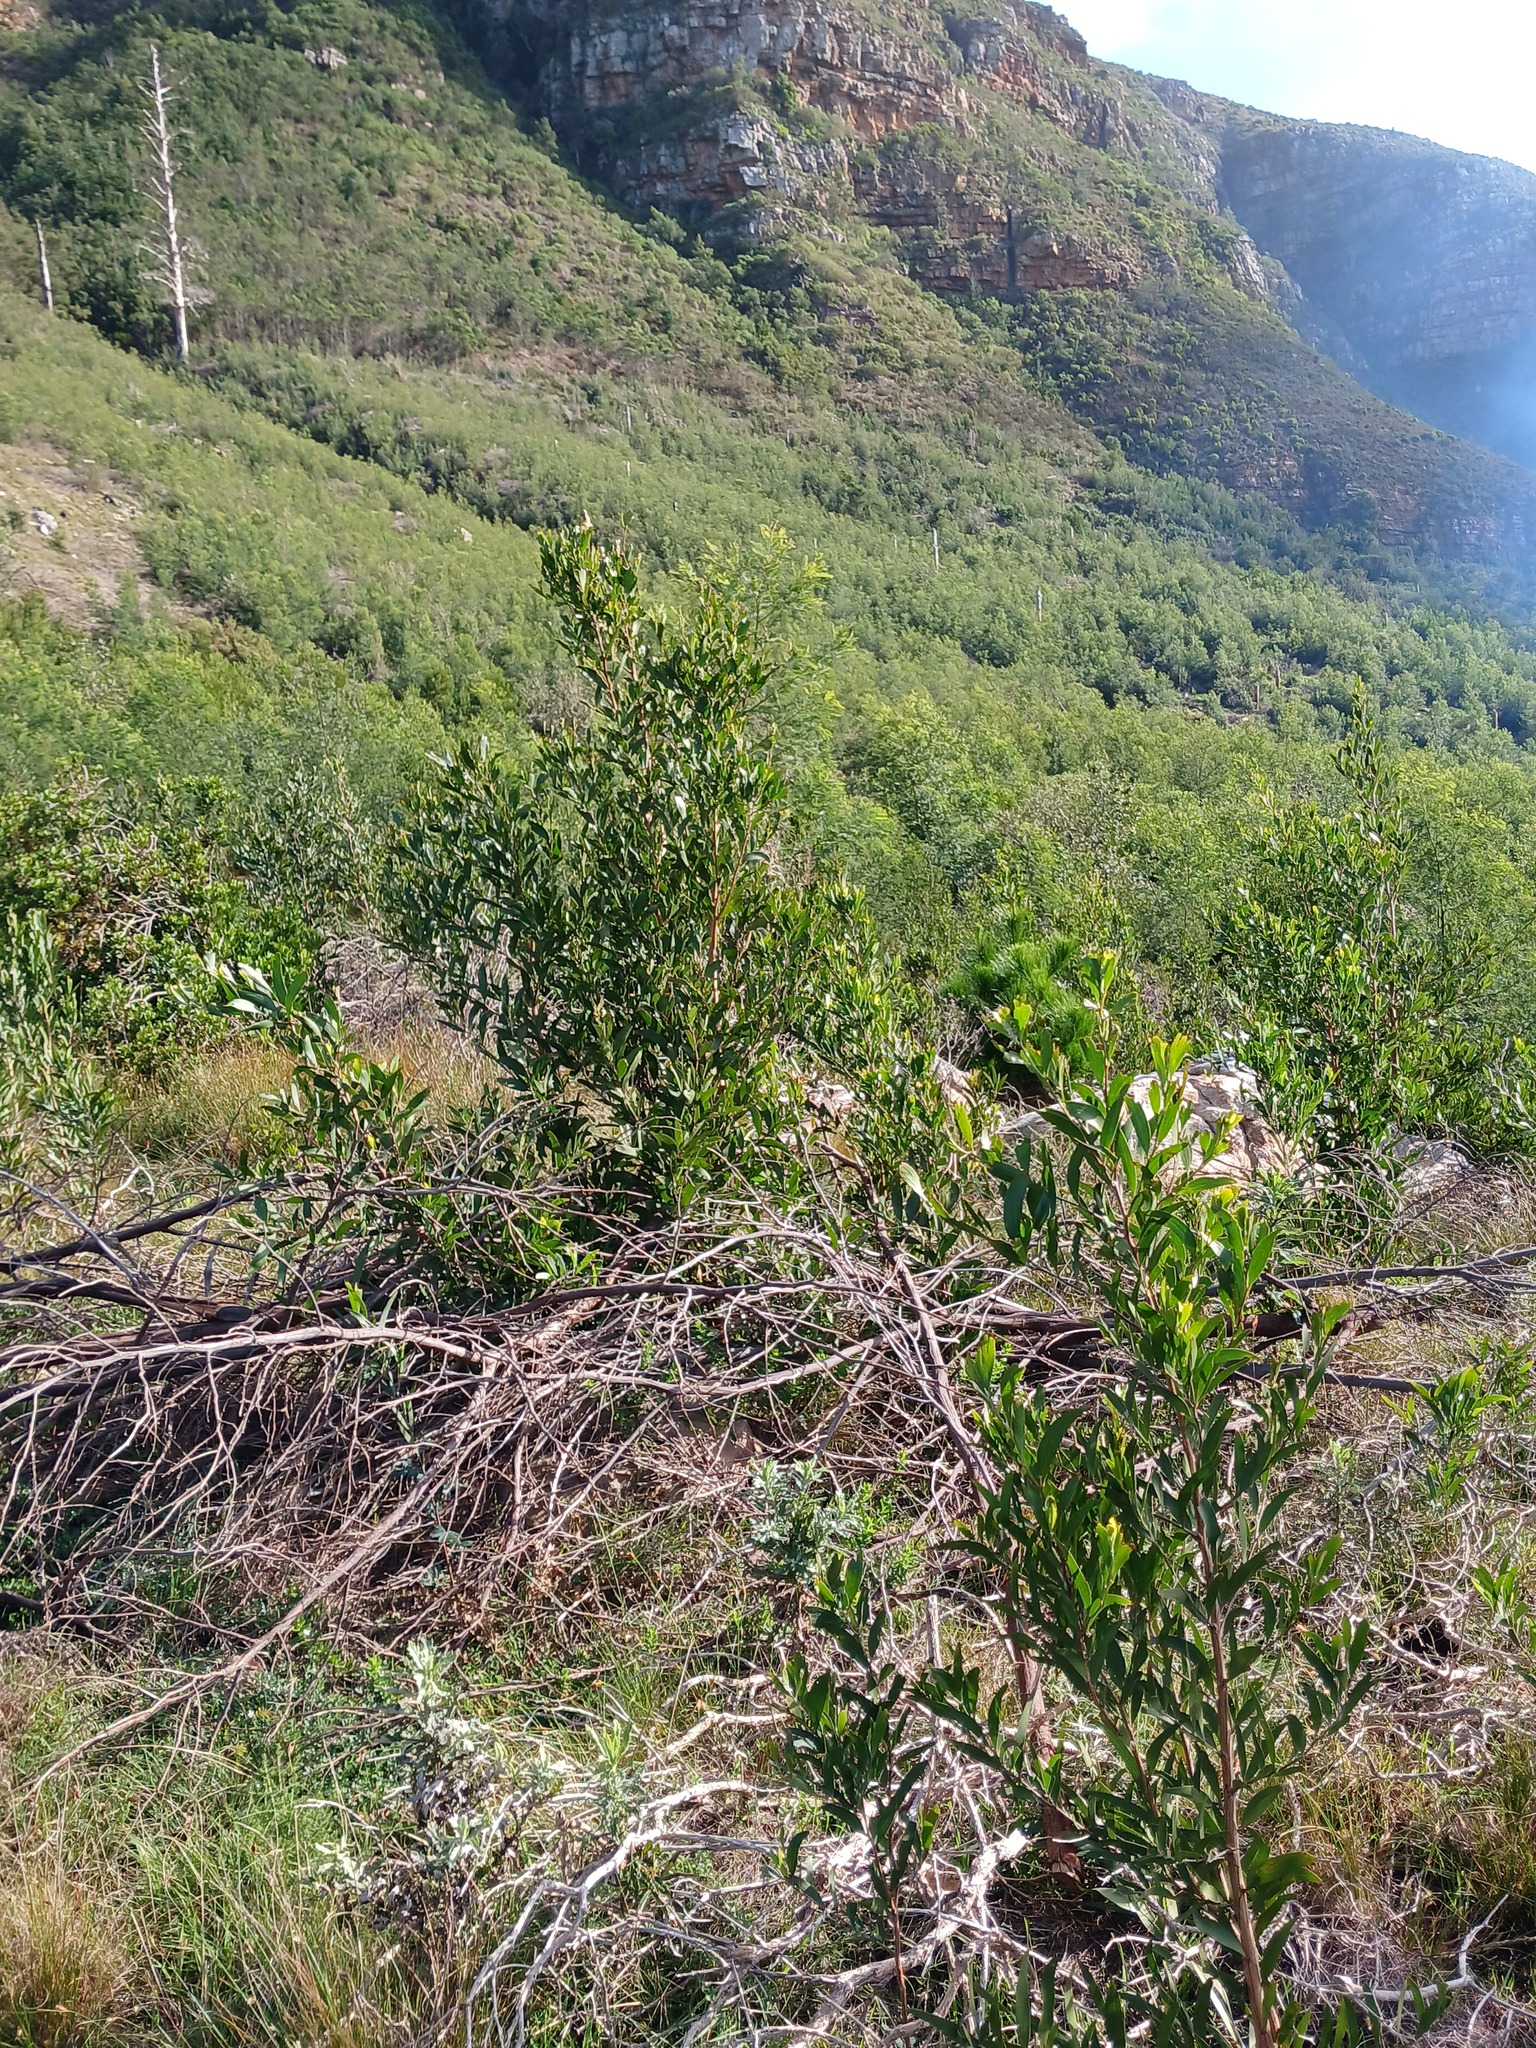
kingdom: Plantae
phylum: Tracheophyta
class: Magnoliopsida
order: Fabales
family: Fabaceae
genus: Acacia
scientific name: Acacia melanoxylon
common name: Blackwood
